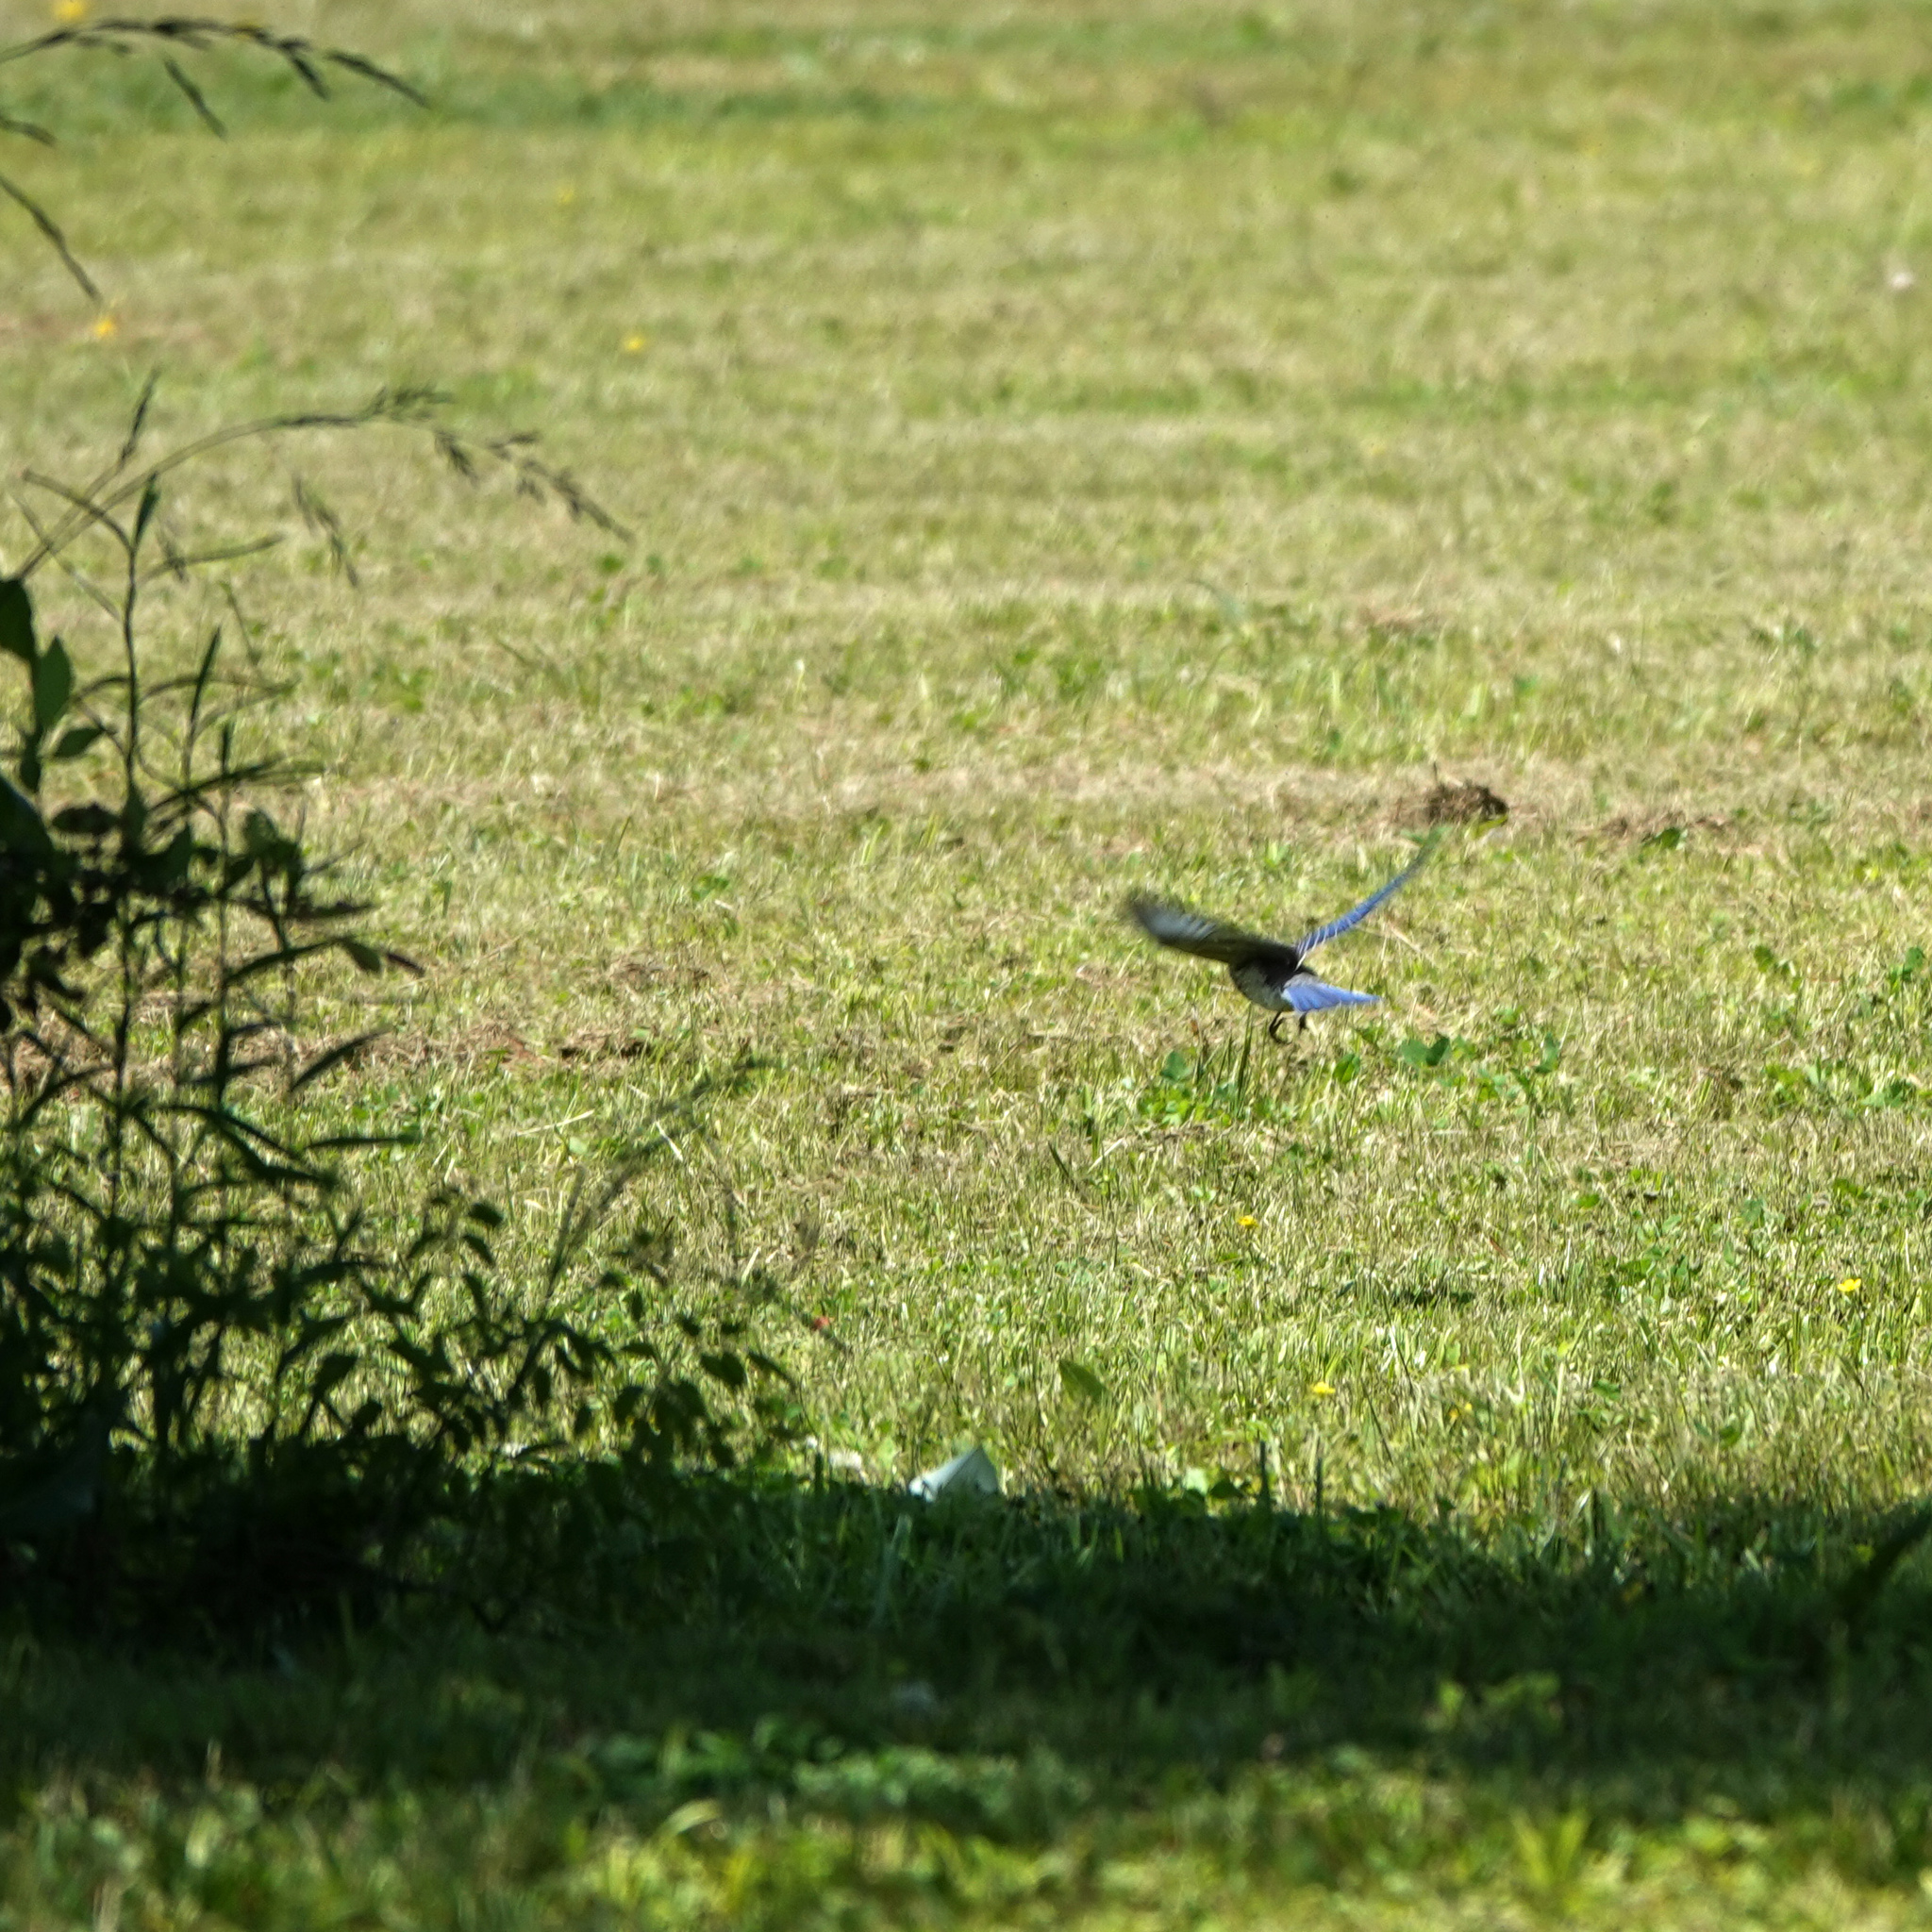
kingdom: Animalia
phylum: Chordata
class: Aves
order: Passeriformes
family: Turdidae
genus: Sialia
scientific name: Sialia sialis
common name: Eastern bluebird
